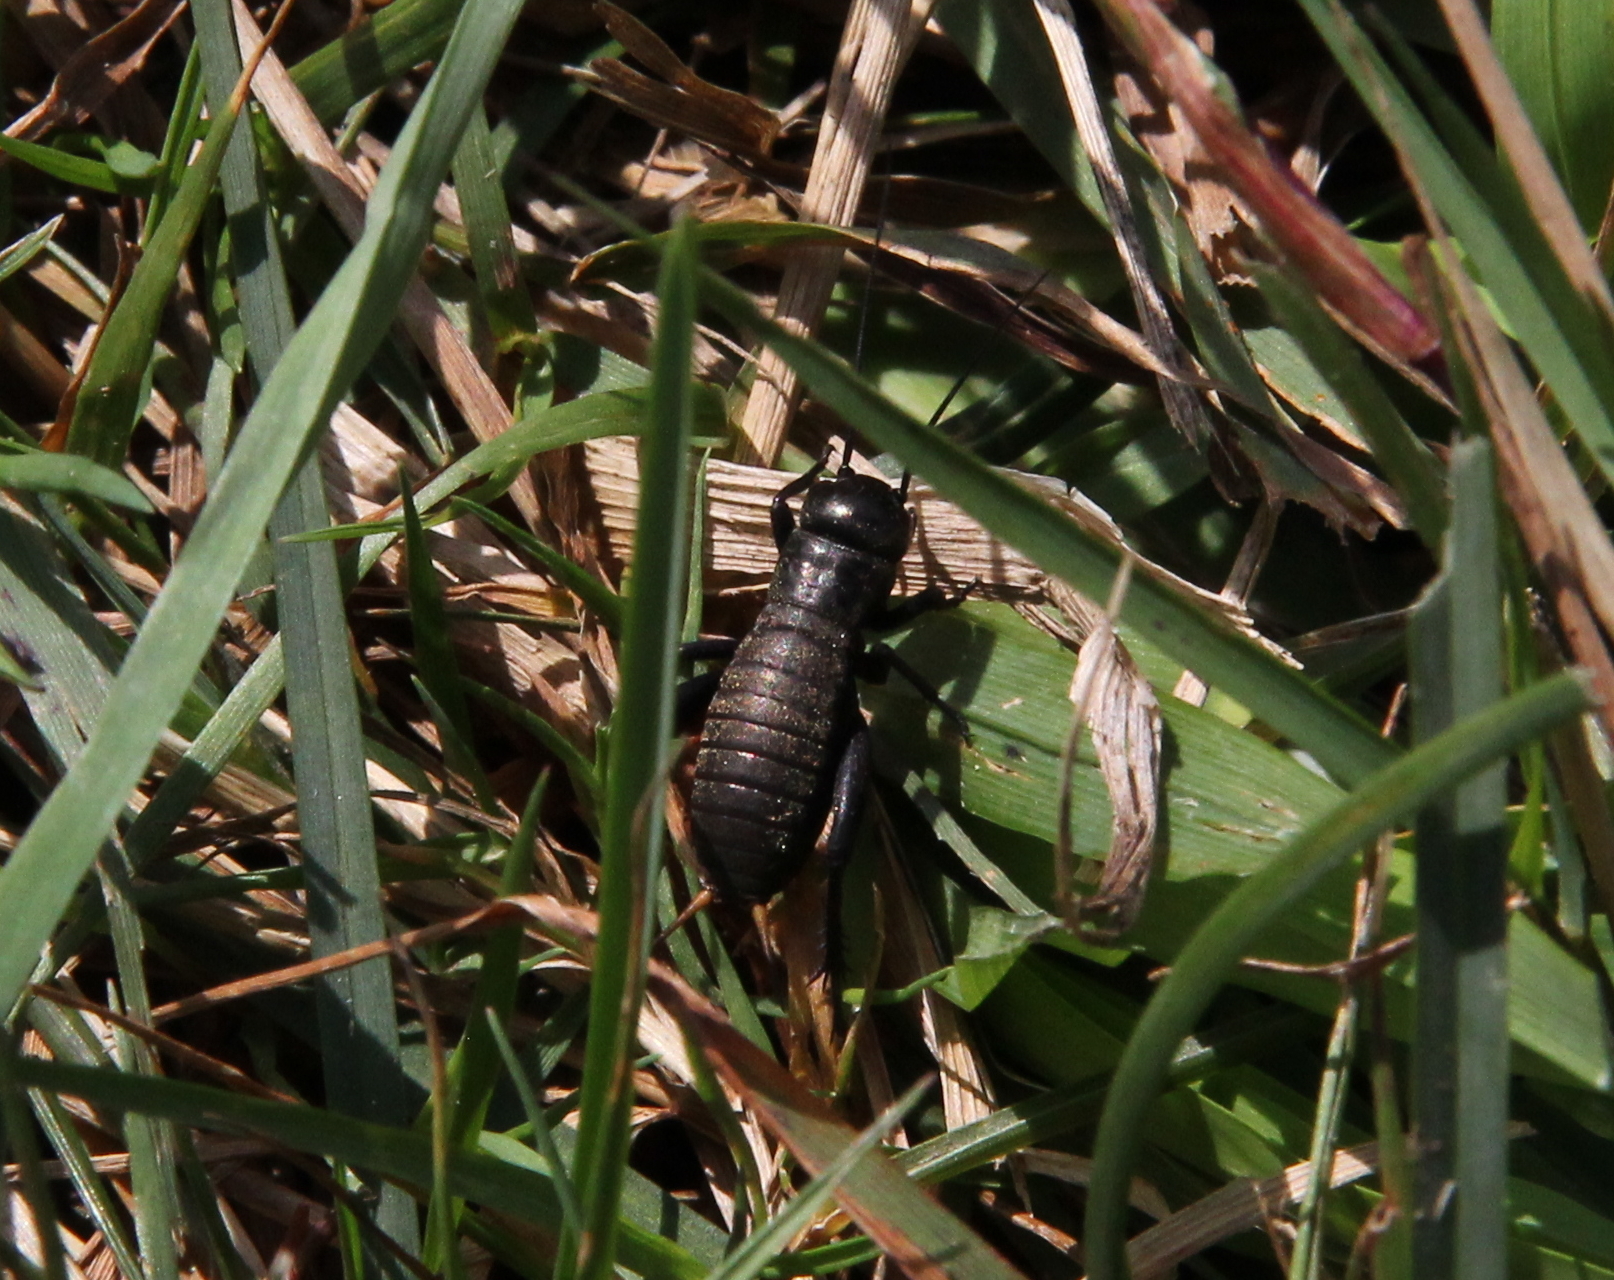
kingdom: Animalia
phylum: Arthropoda
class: Insecta
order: Orthoptera
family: Gryllidae
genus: Gryllus
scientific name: Gryllus campestris
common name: Field cricket
